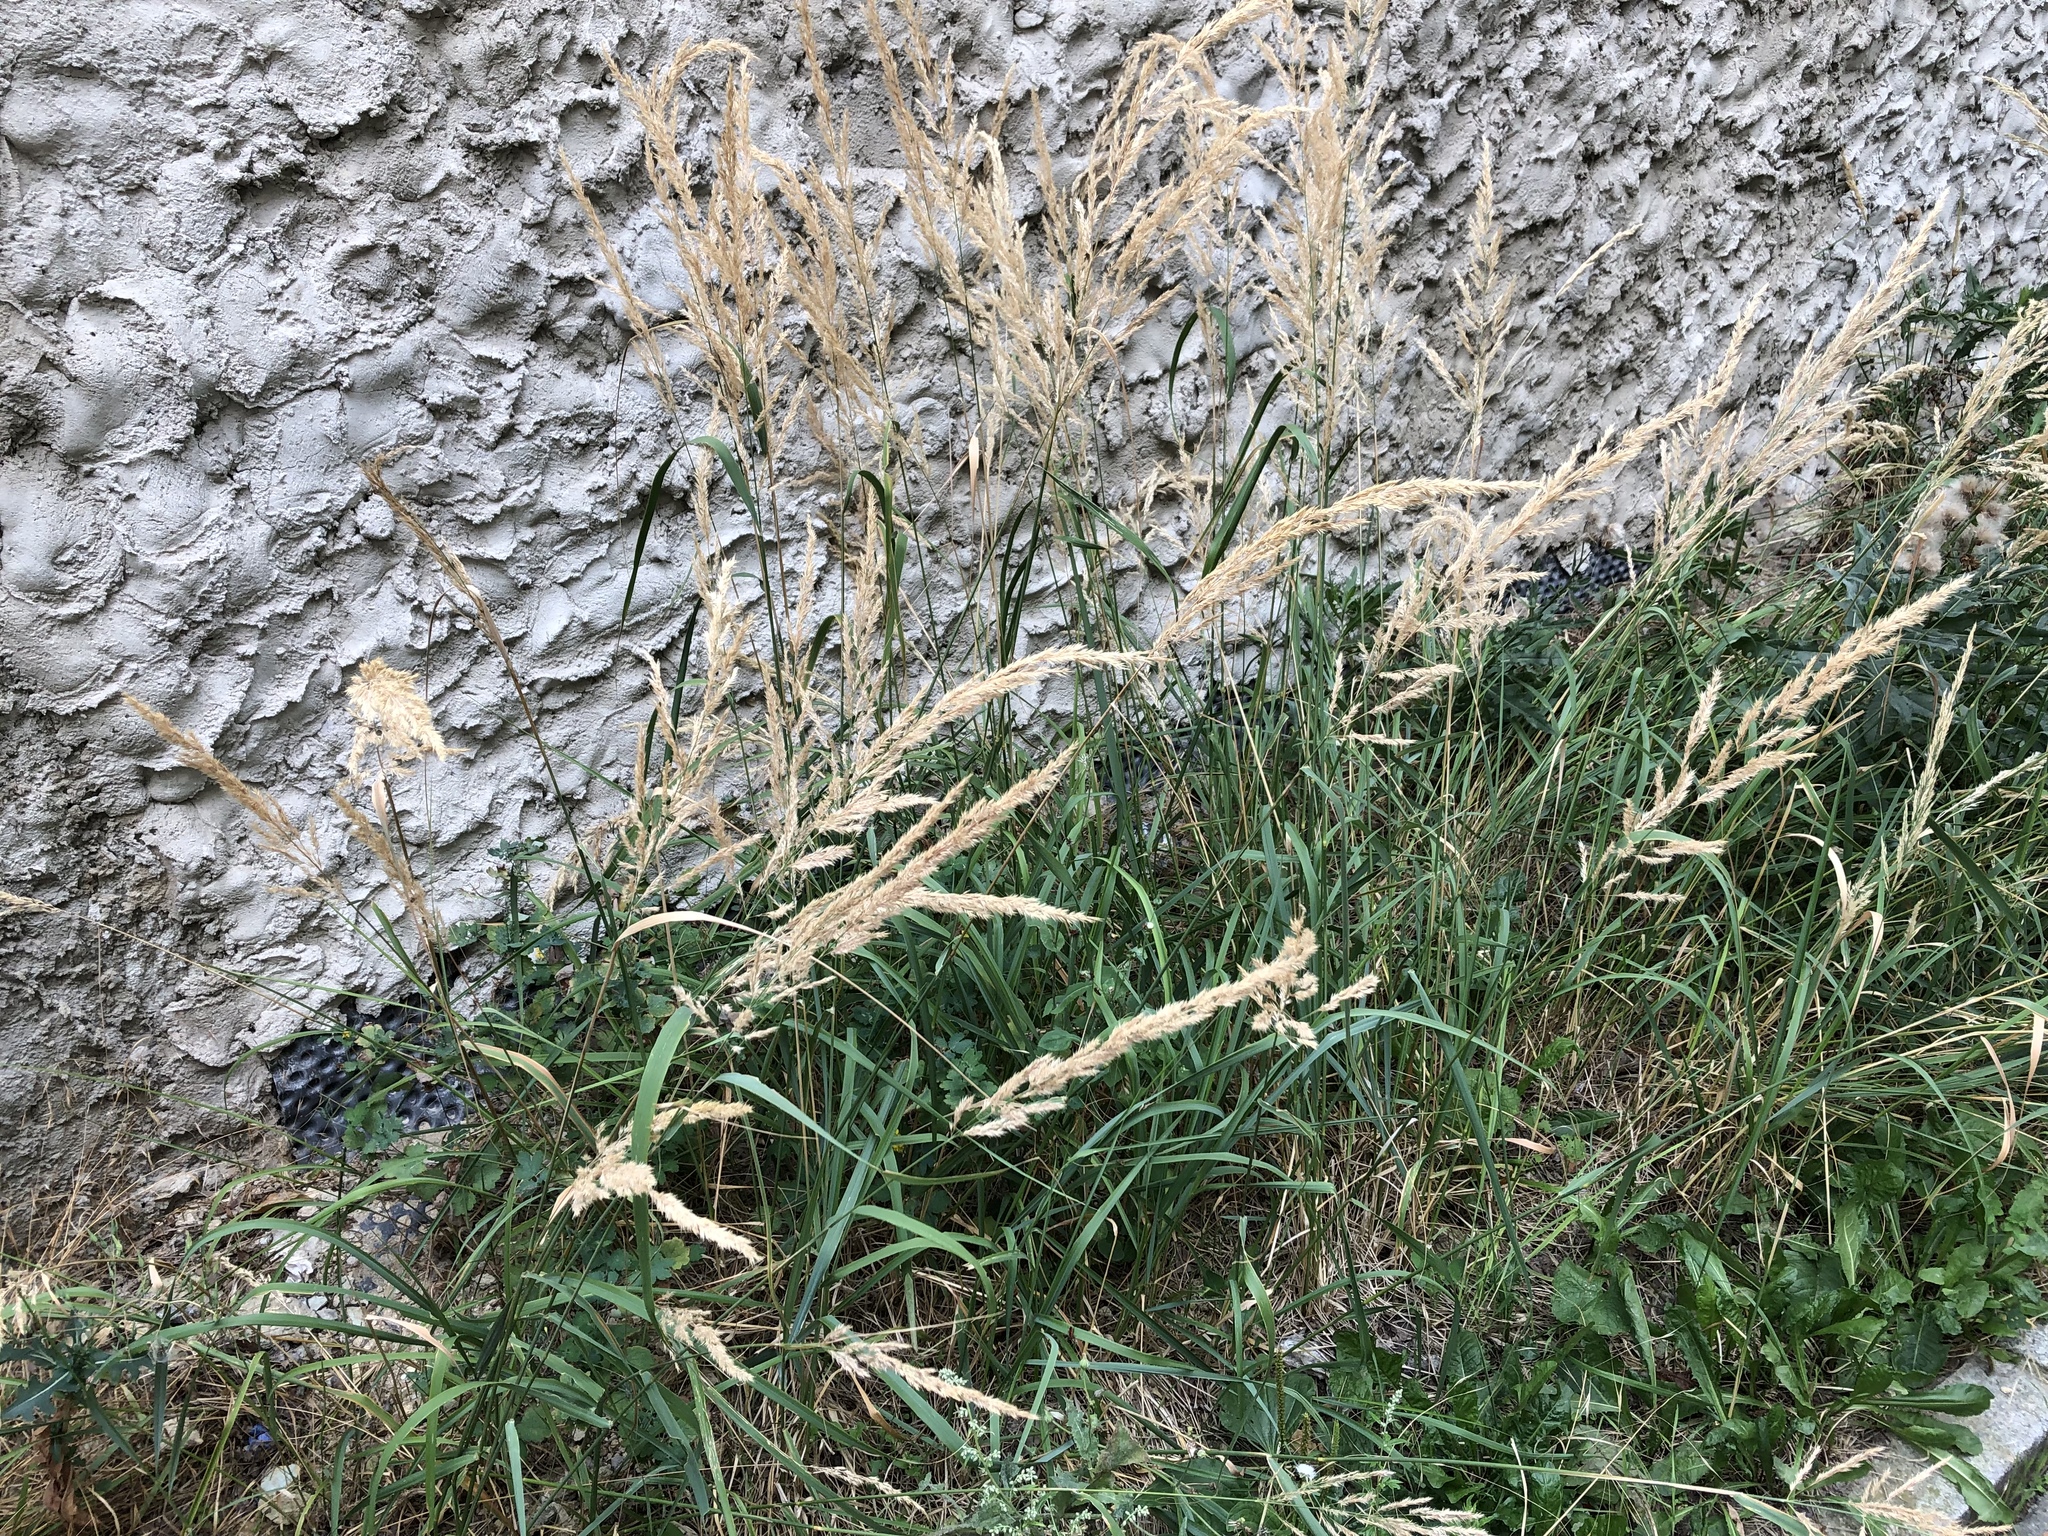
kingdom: Plantae
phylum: Tracheophyta
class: Liliopsida
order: Poales
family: Poaceae
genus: Calamagrostis
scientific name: Calamagrostis epigejos
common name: Wood small-reed
